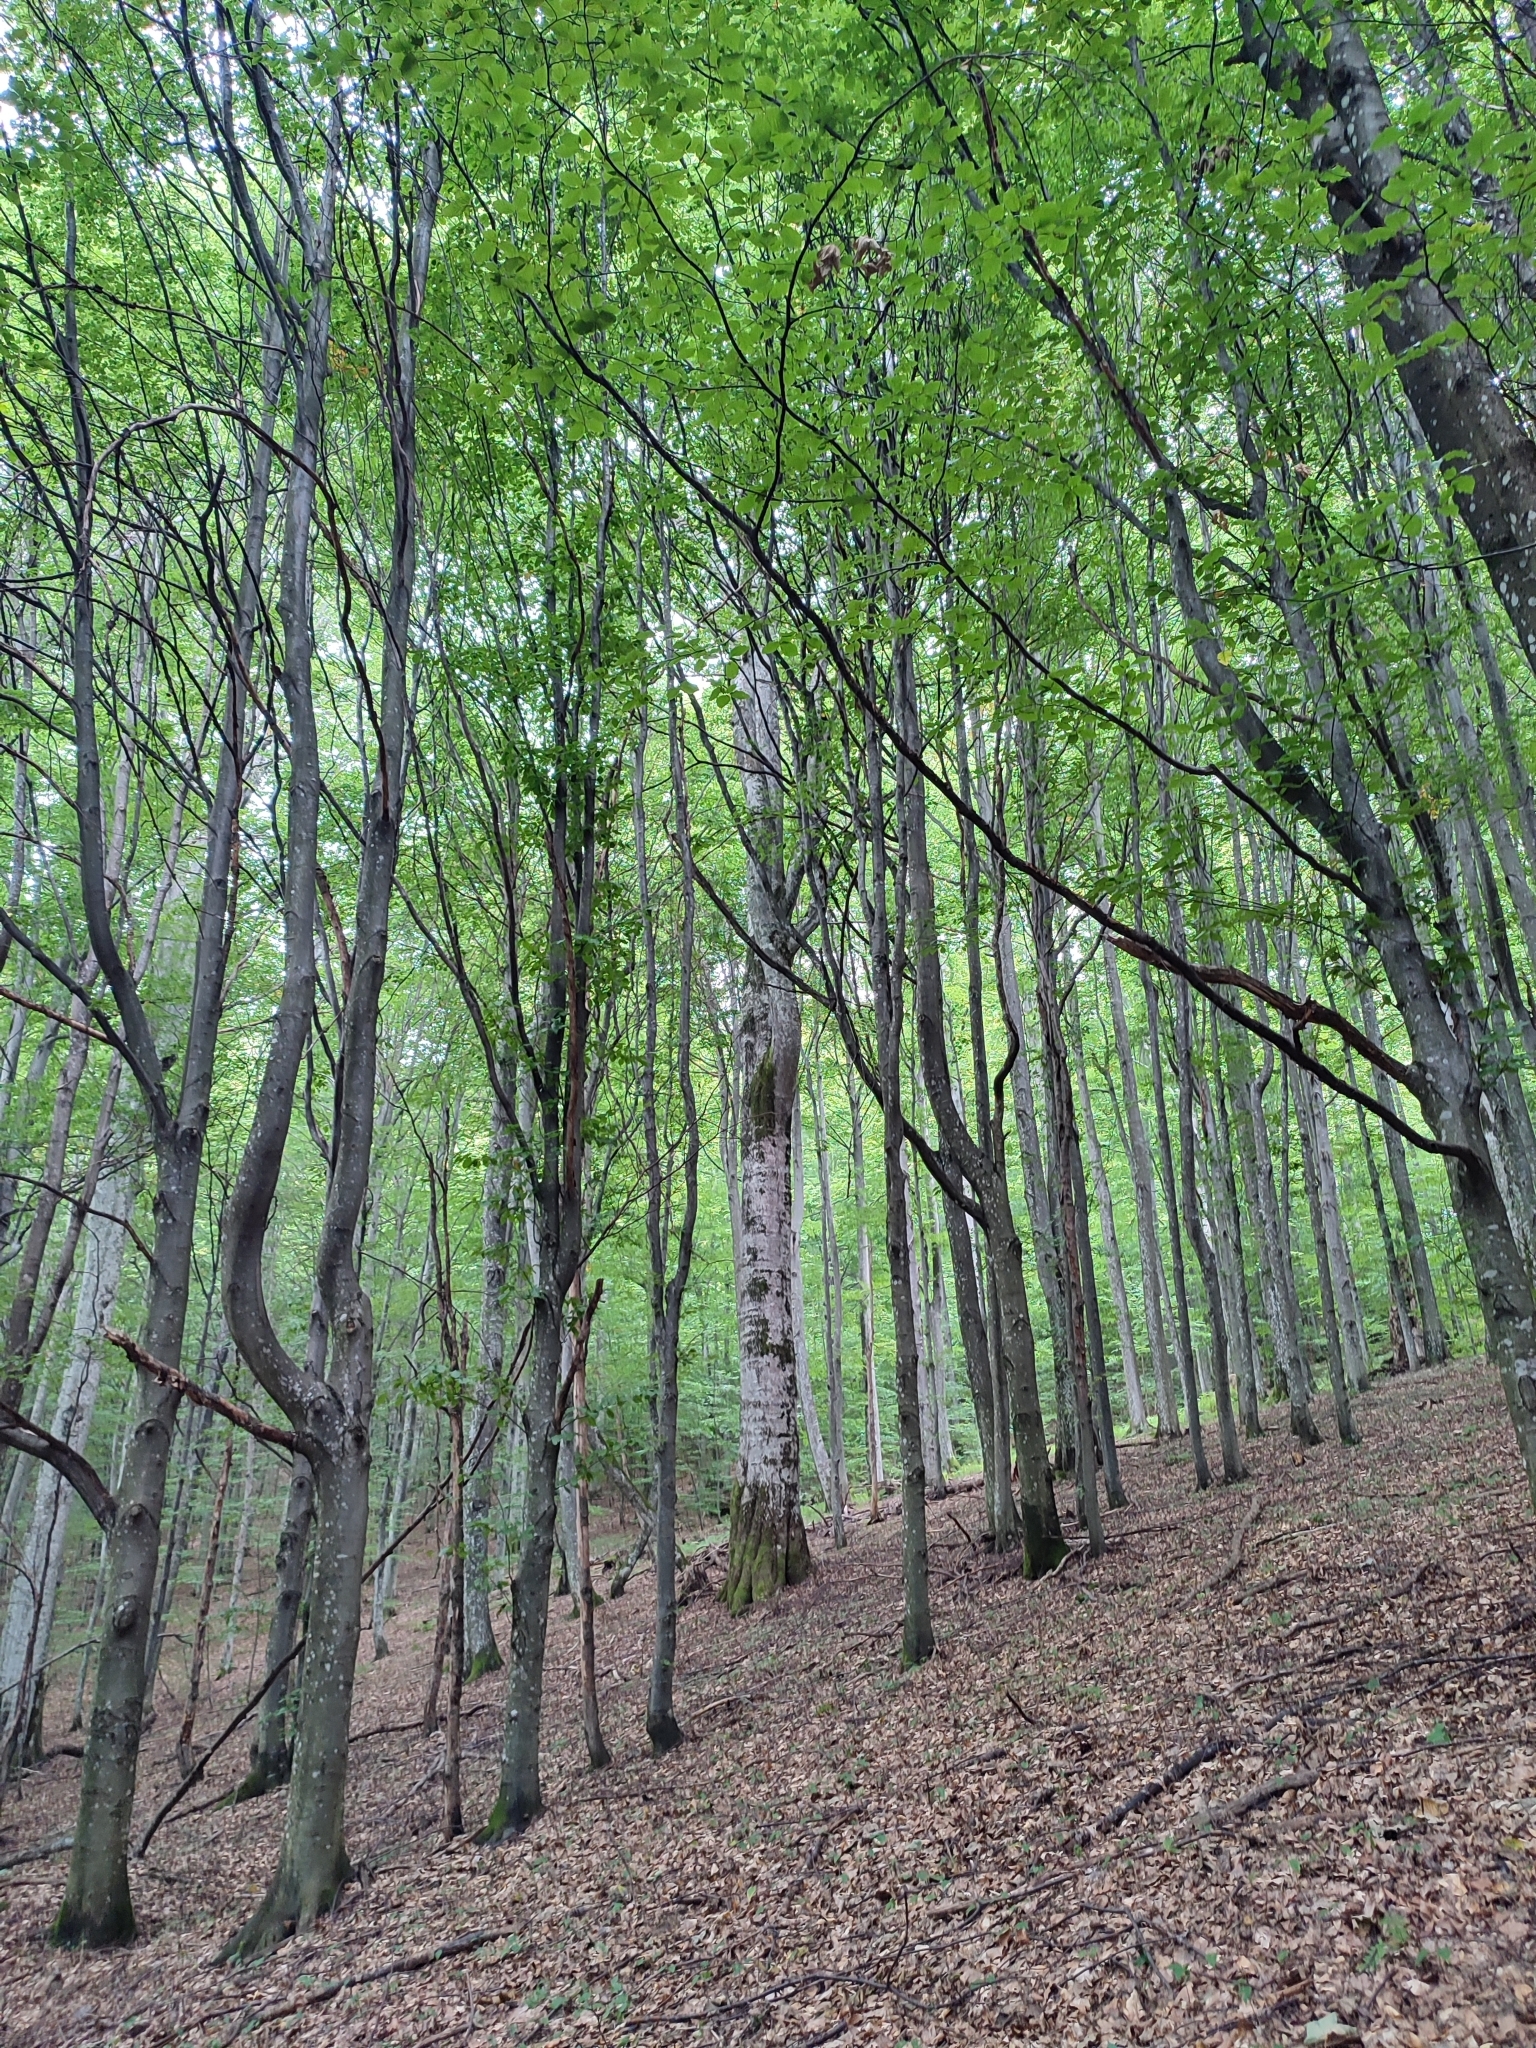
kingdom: Plantae
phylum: Tracheophyta
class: Magnoliopsida
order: Fagales
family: Fagaceae
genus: Fagus
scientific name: Fagus sylvatica
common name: Beech
